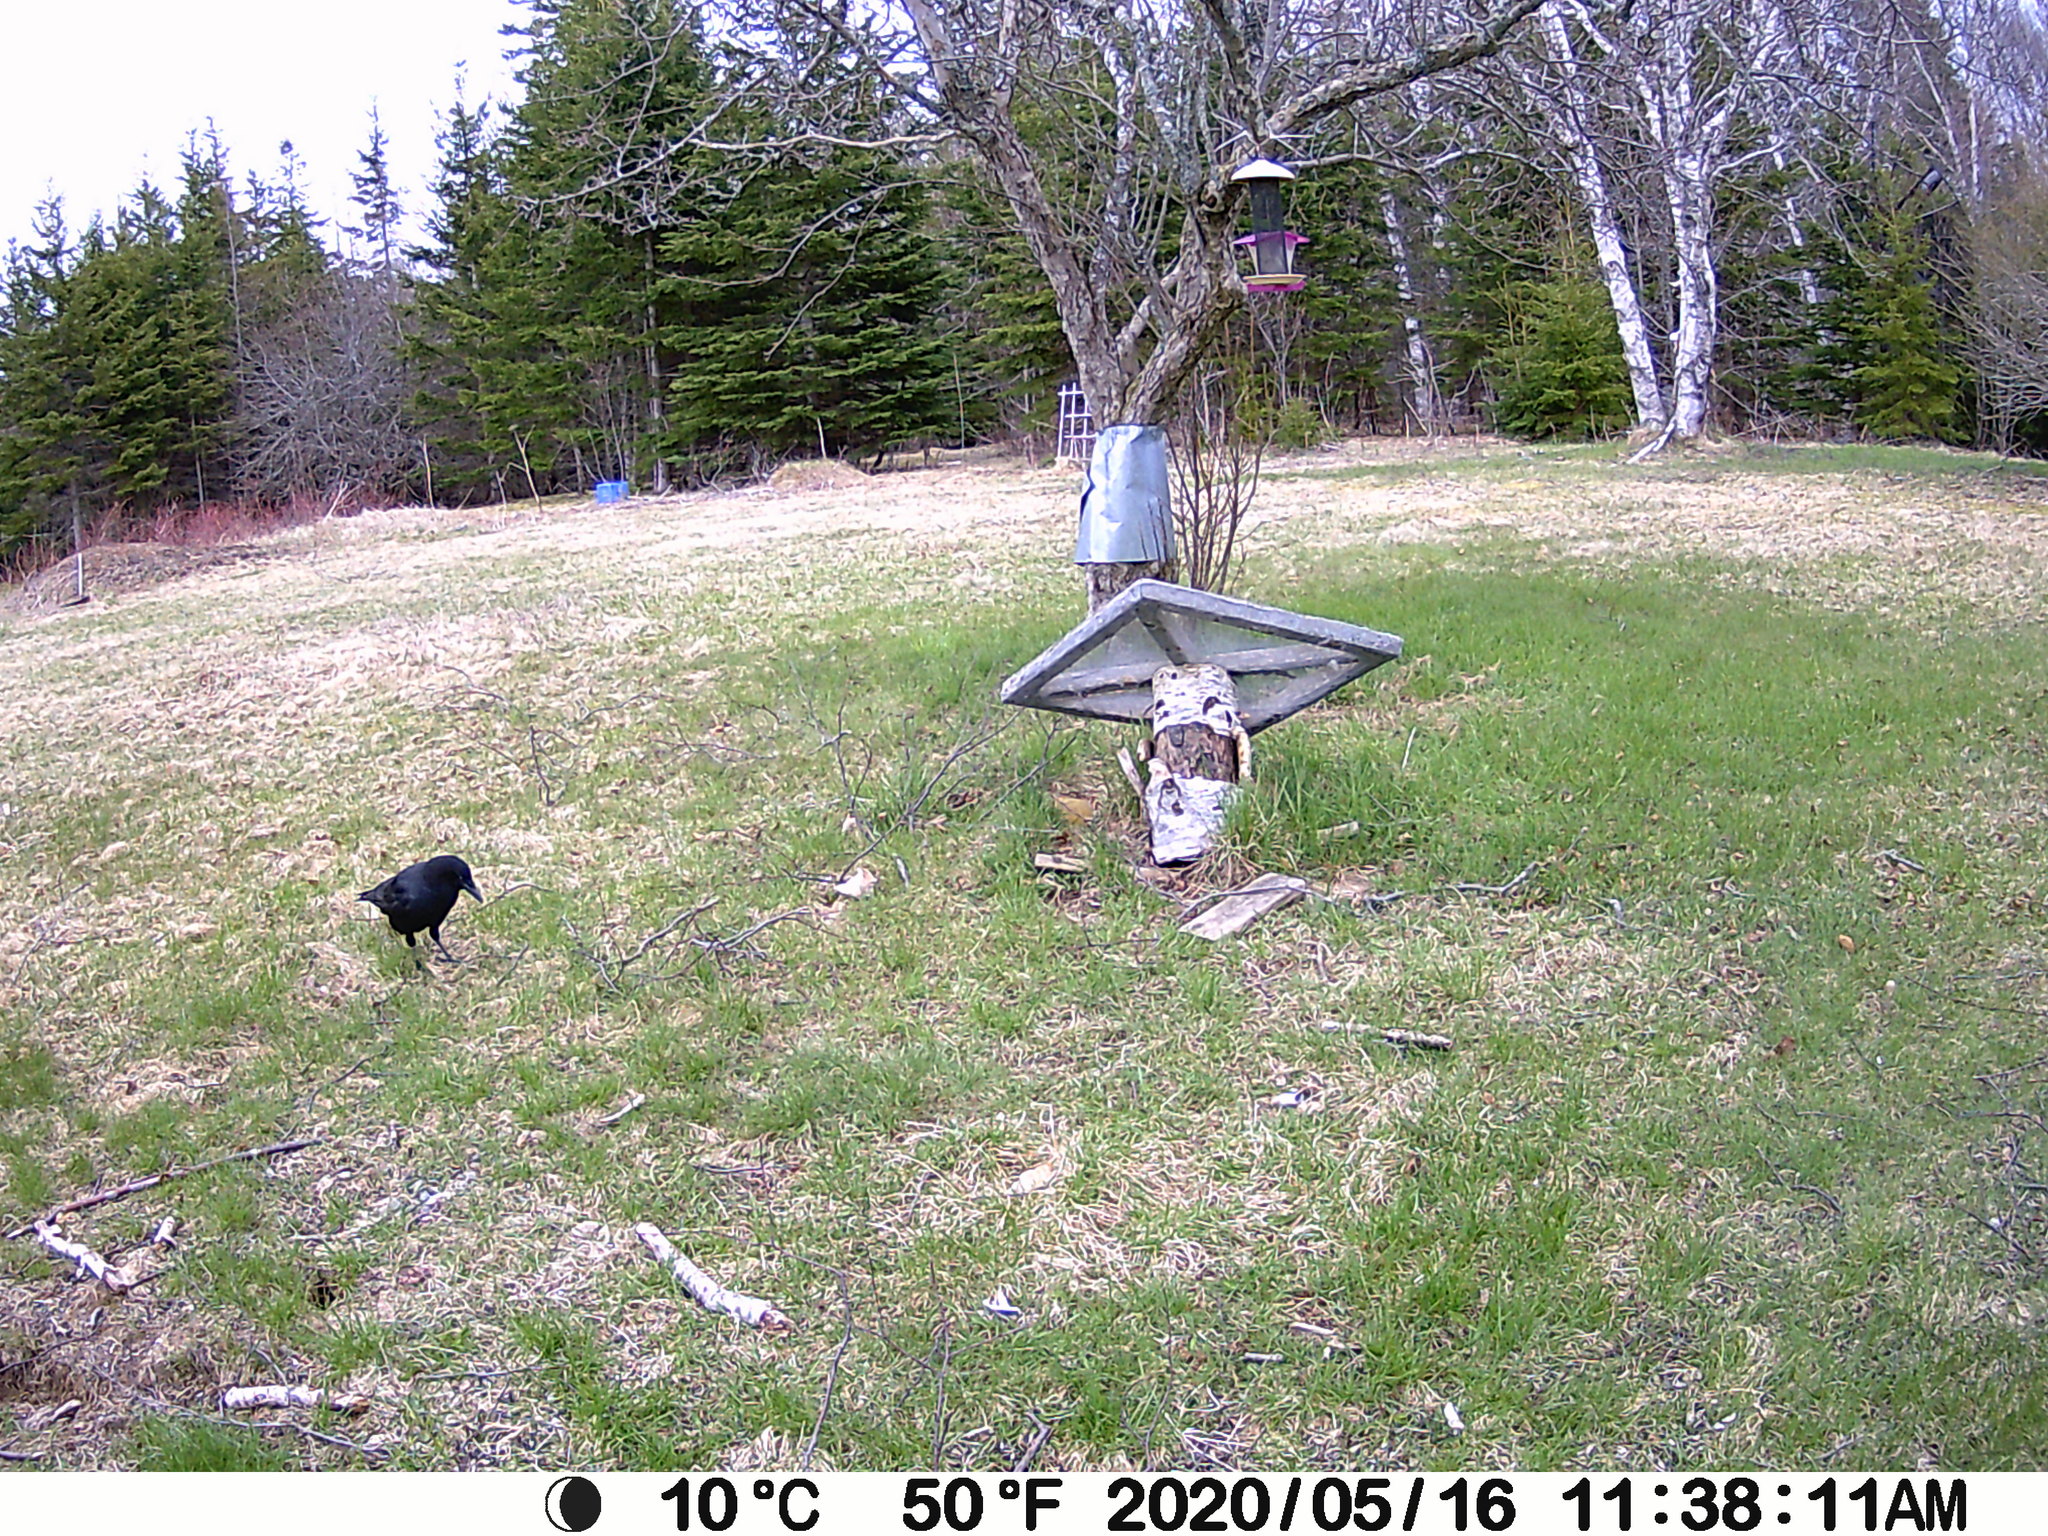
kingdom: Animalia
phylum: Chordata
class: Aves
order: Passeriformes
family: Corvidae
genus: Corvus
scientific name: Corvus brachyrhynchos
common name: American crow
